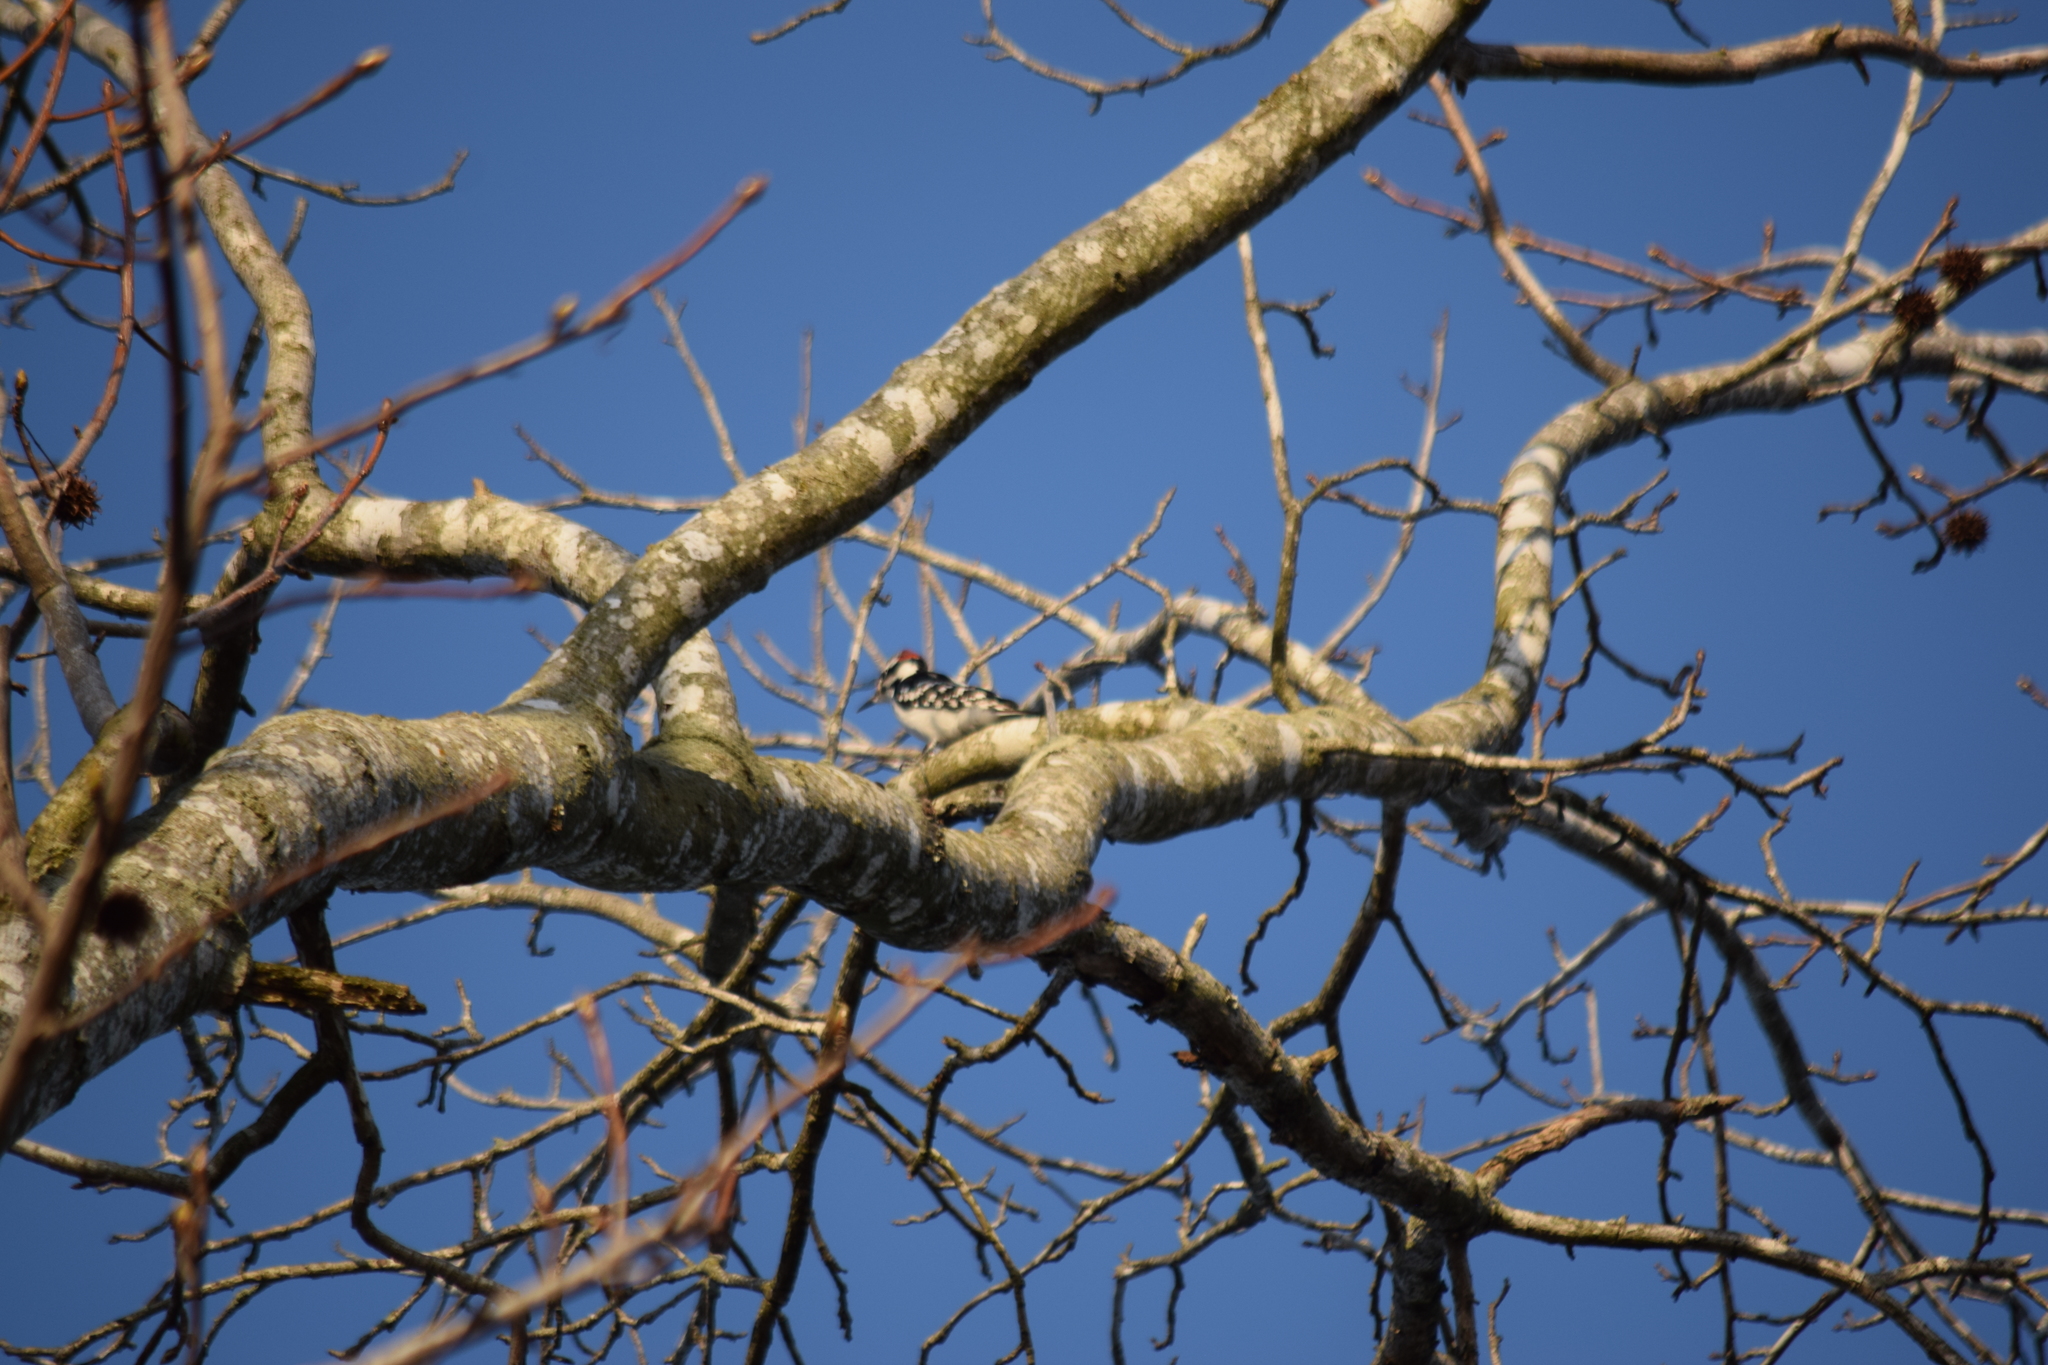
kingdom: Animalia
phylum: Chordata
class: Aves
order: Piciformes
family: Picidae
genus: Leuconotopicus
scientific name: Leuconotopicus villosus
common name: Hairy woodpecker
